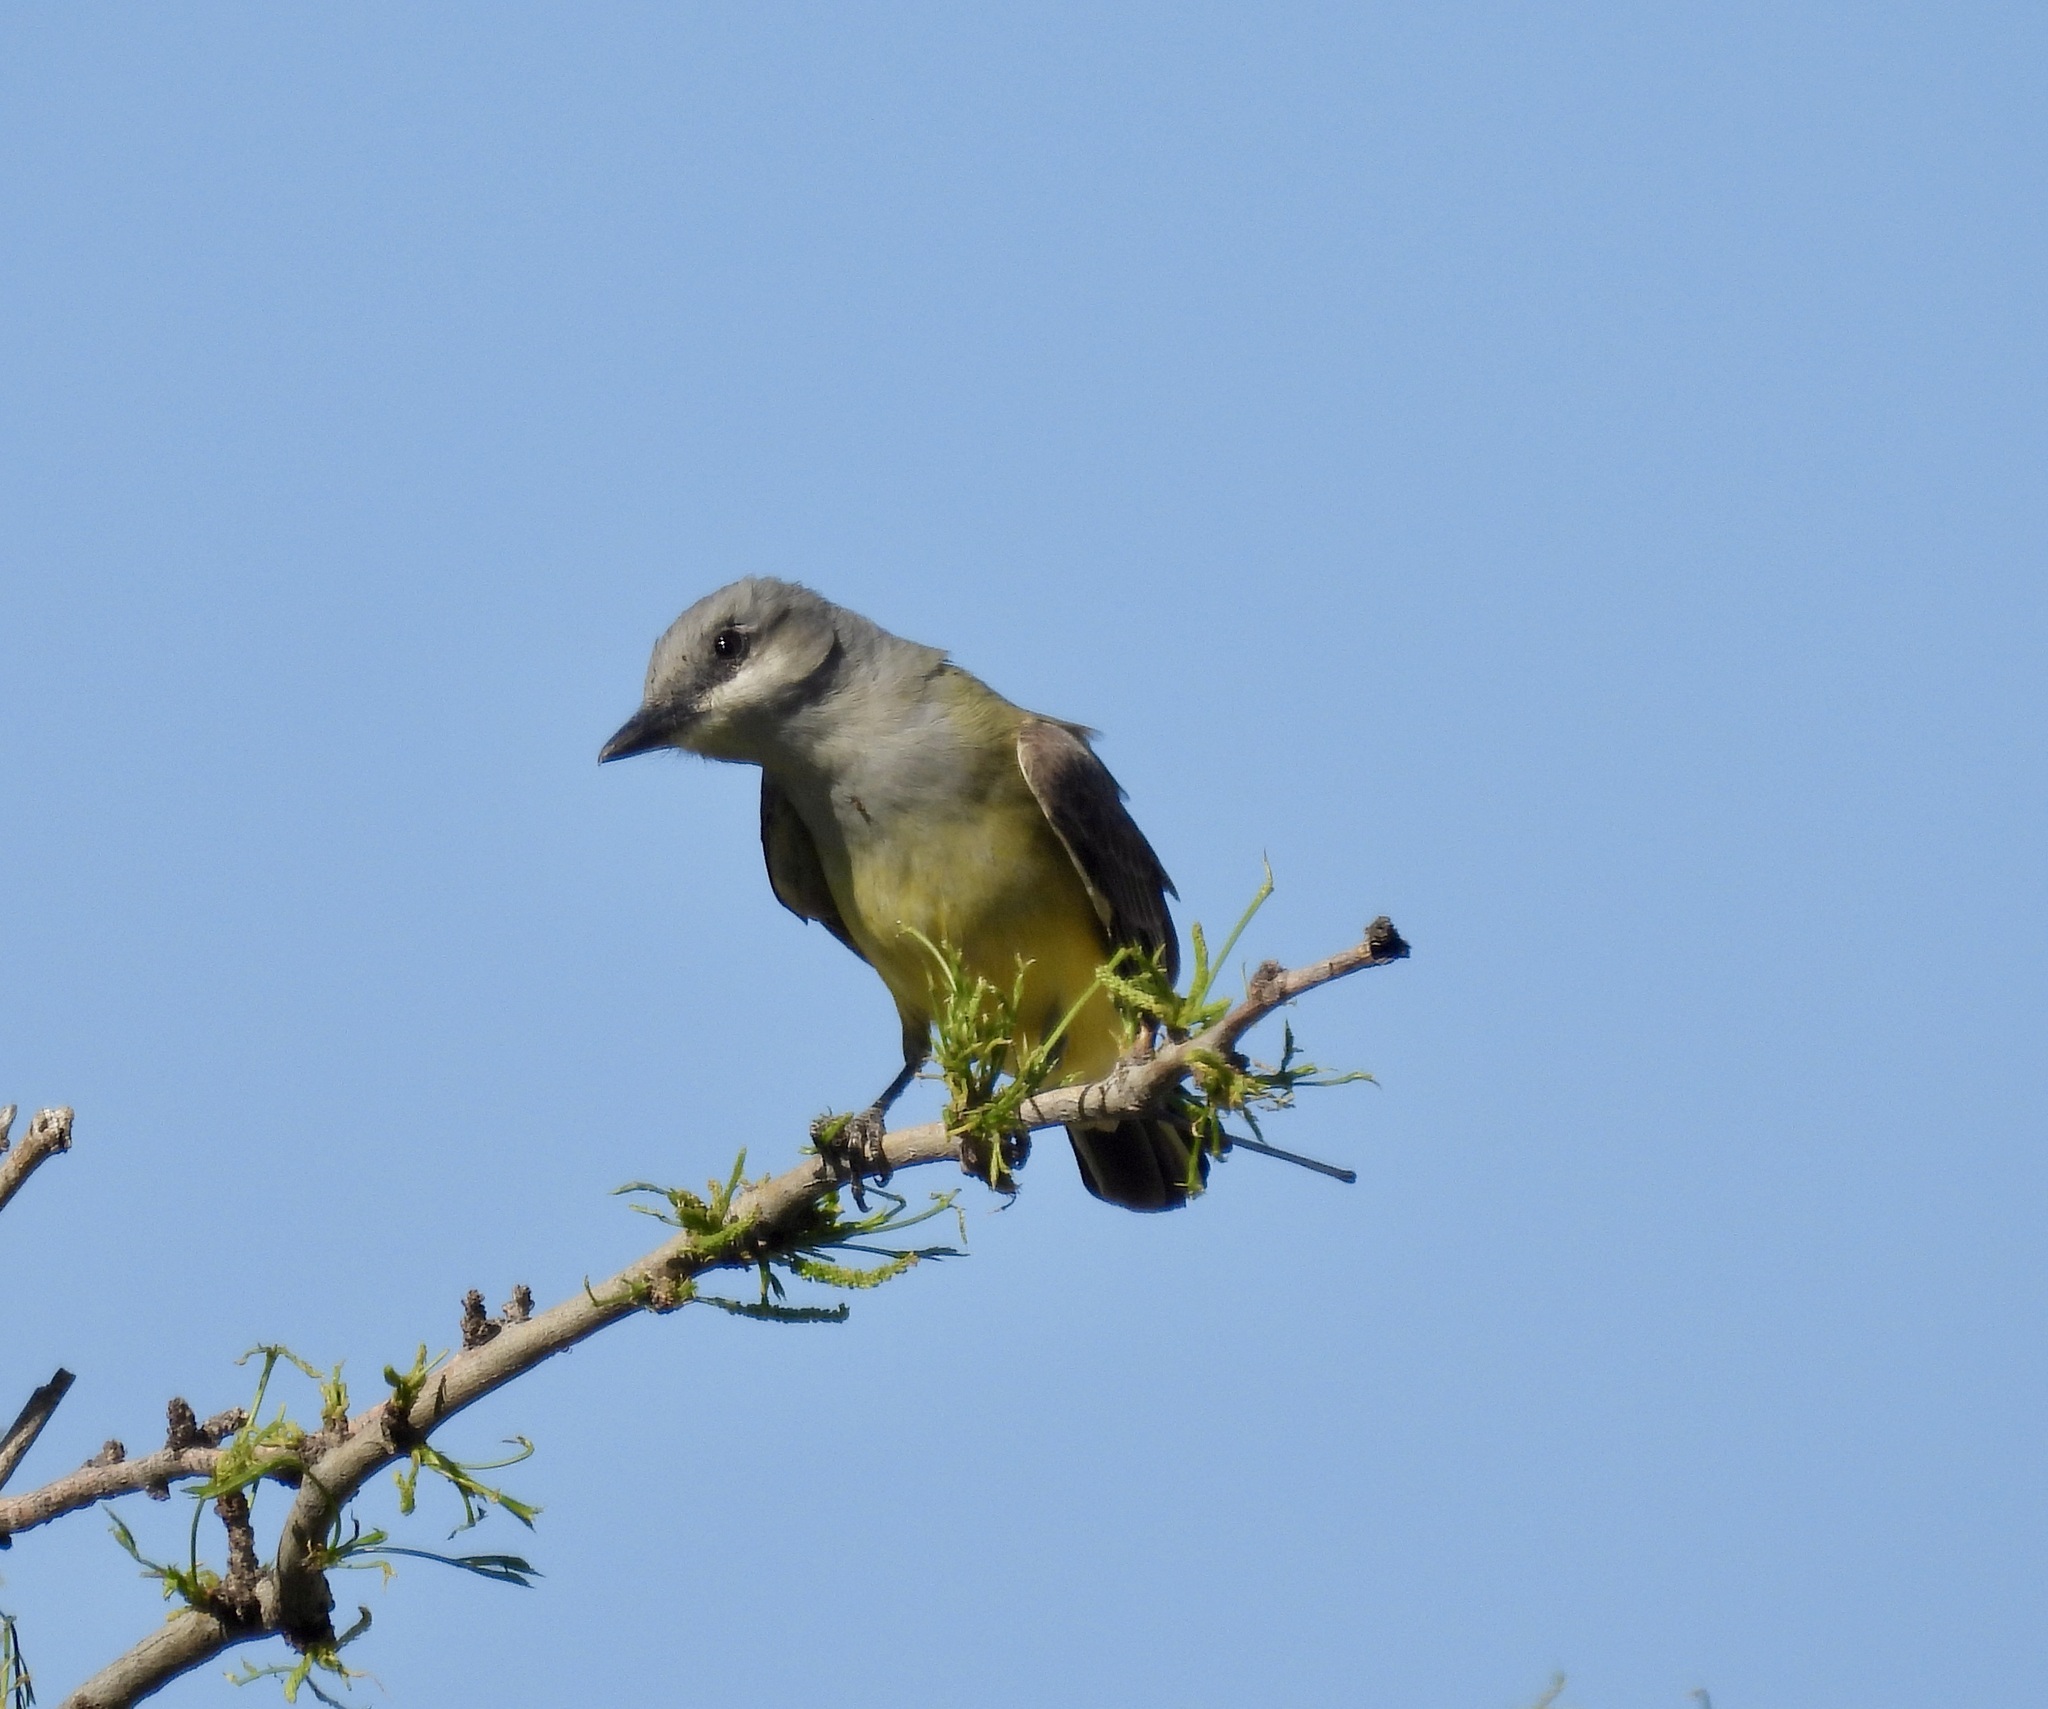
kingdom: Animalia
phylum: Chordata
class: Aves
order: Passeriformes
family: Tyrannidae
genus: Tyrannus
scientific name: Tyrannus verticalis
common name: Western kingbird
